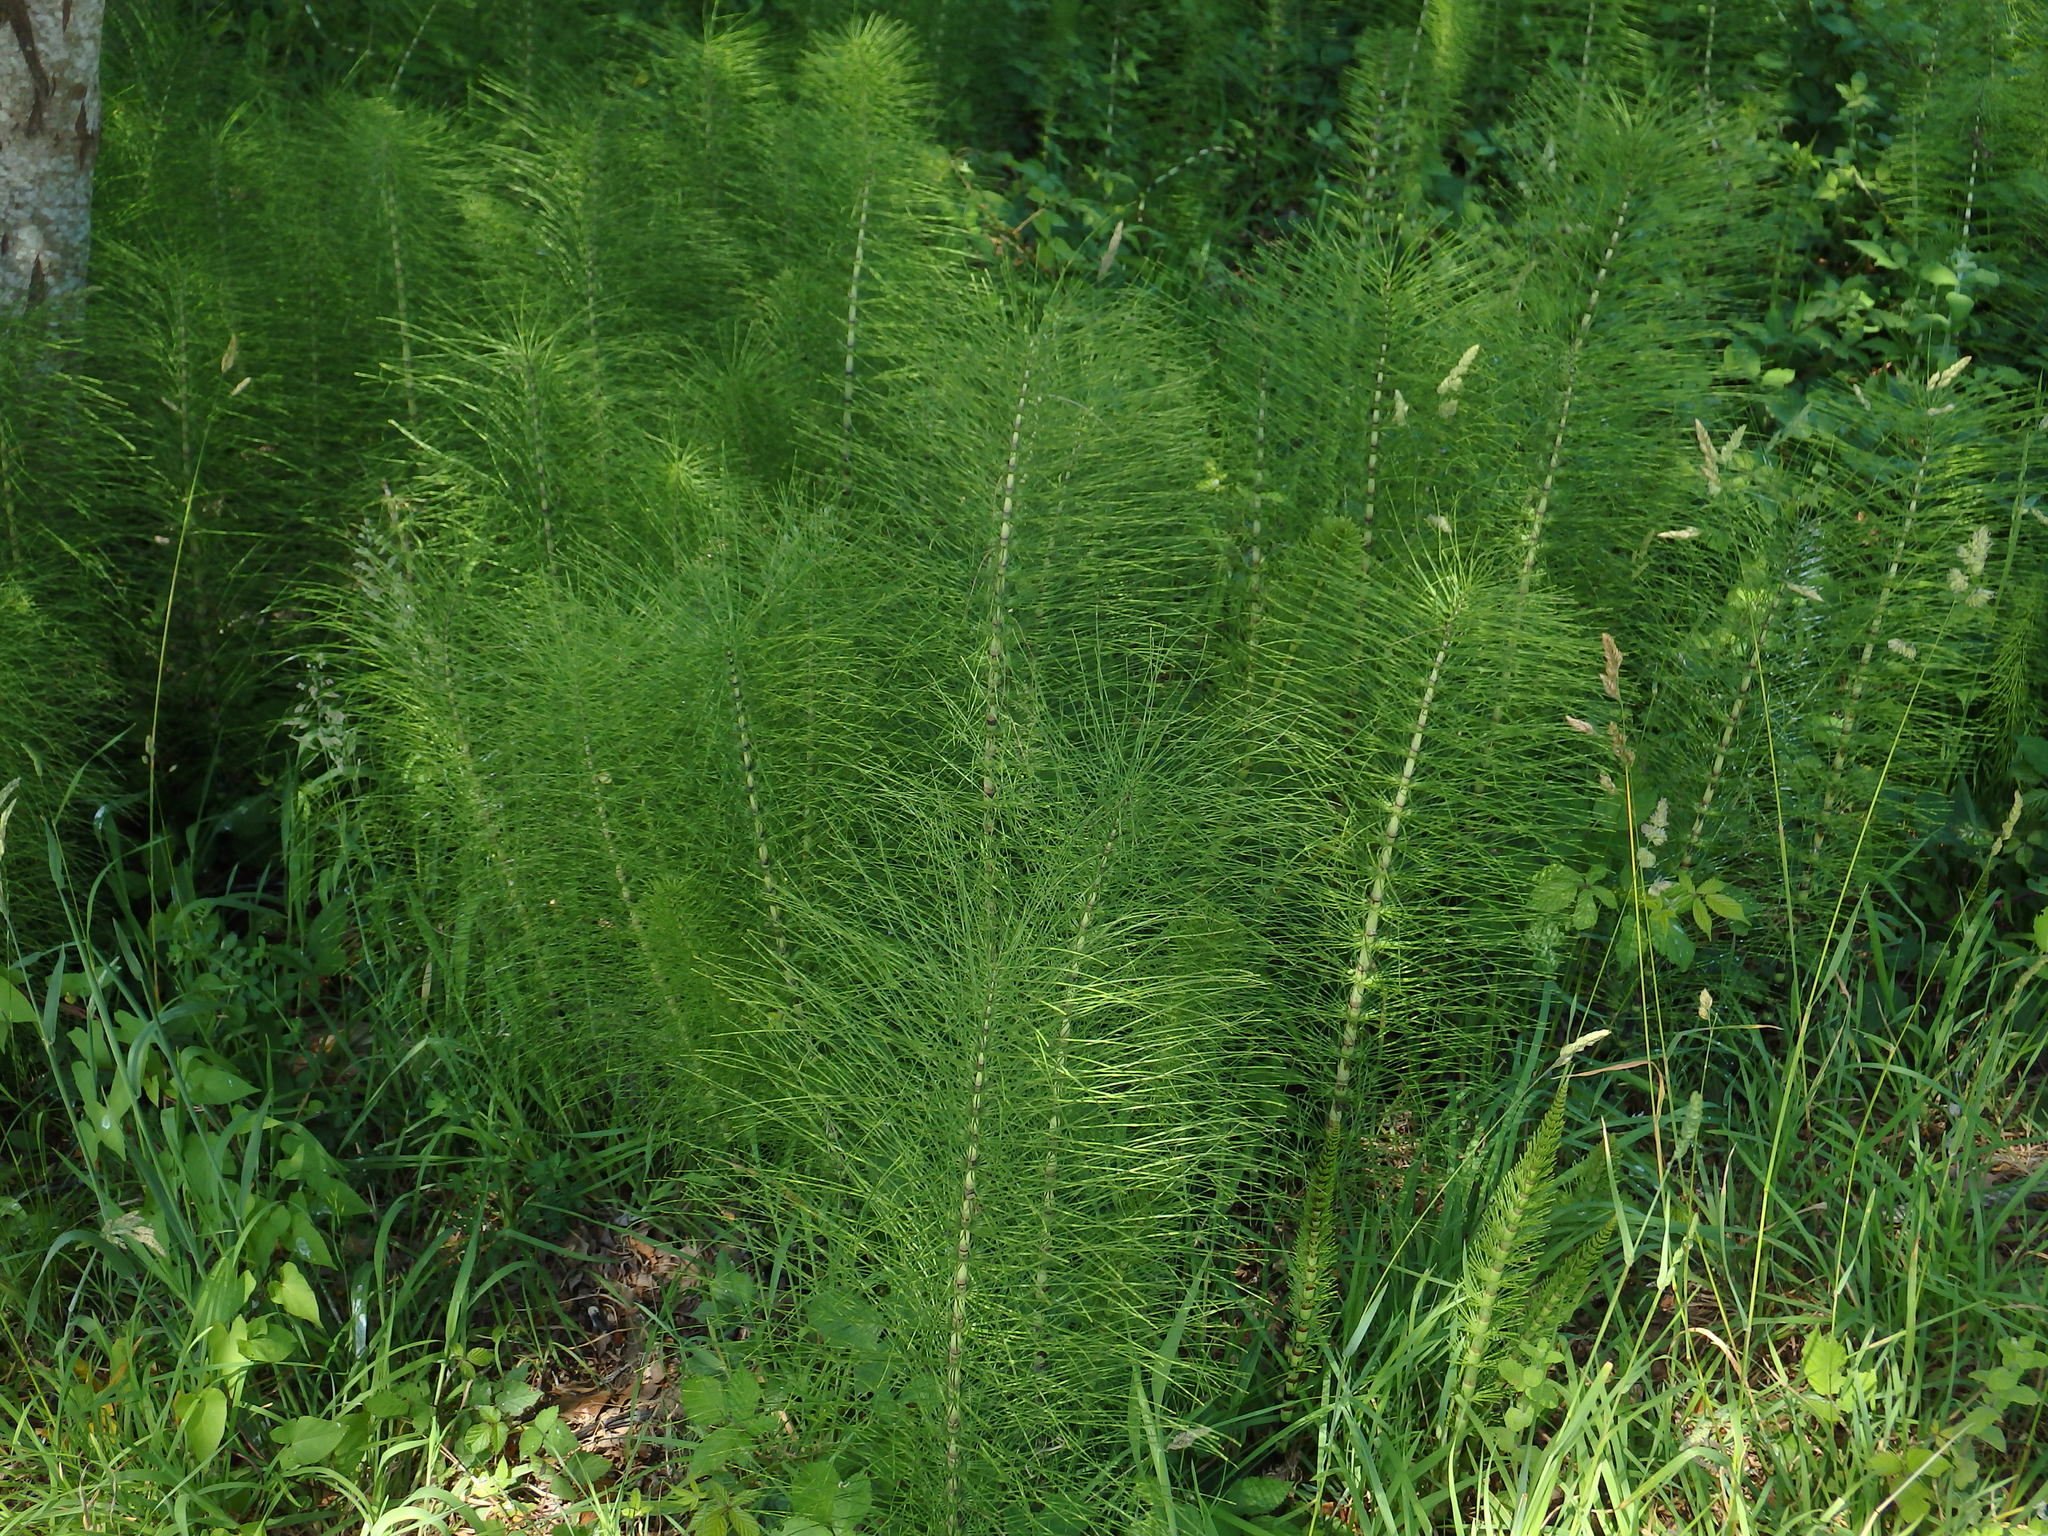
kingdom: Plantae
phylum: Tracheophyta
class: Polypodiopsida
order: Equisetales
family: Equisetaceae
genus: Equisetum
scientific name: Equisetum telmateia
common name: Great horsetail
